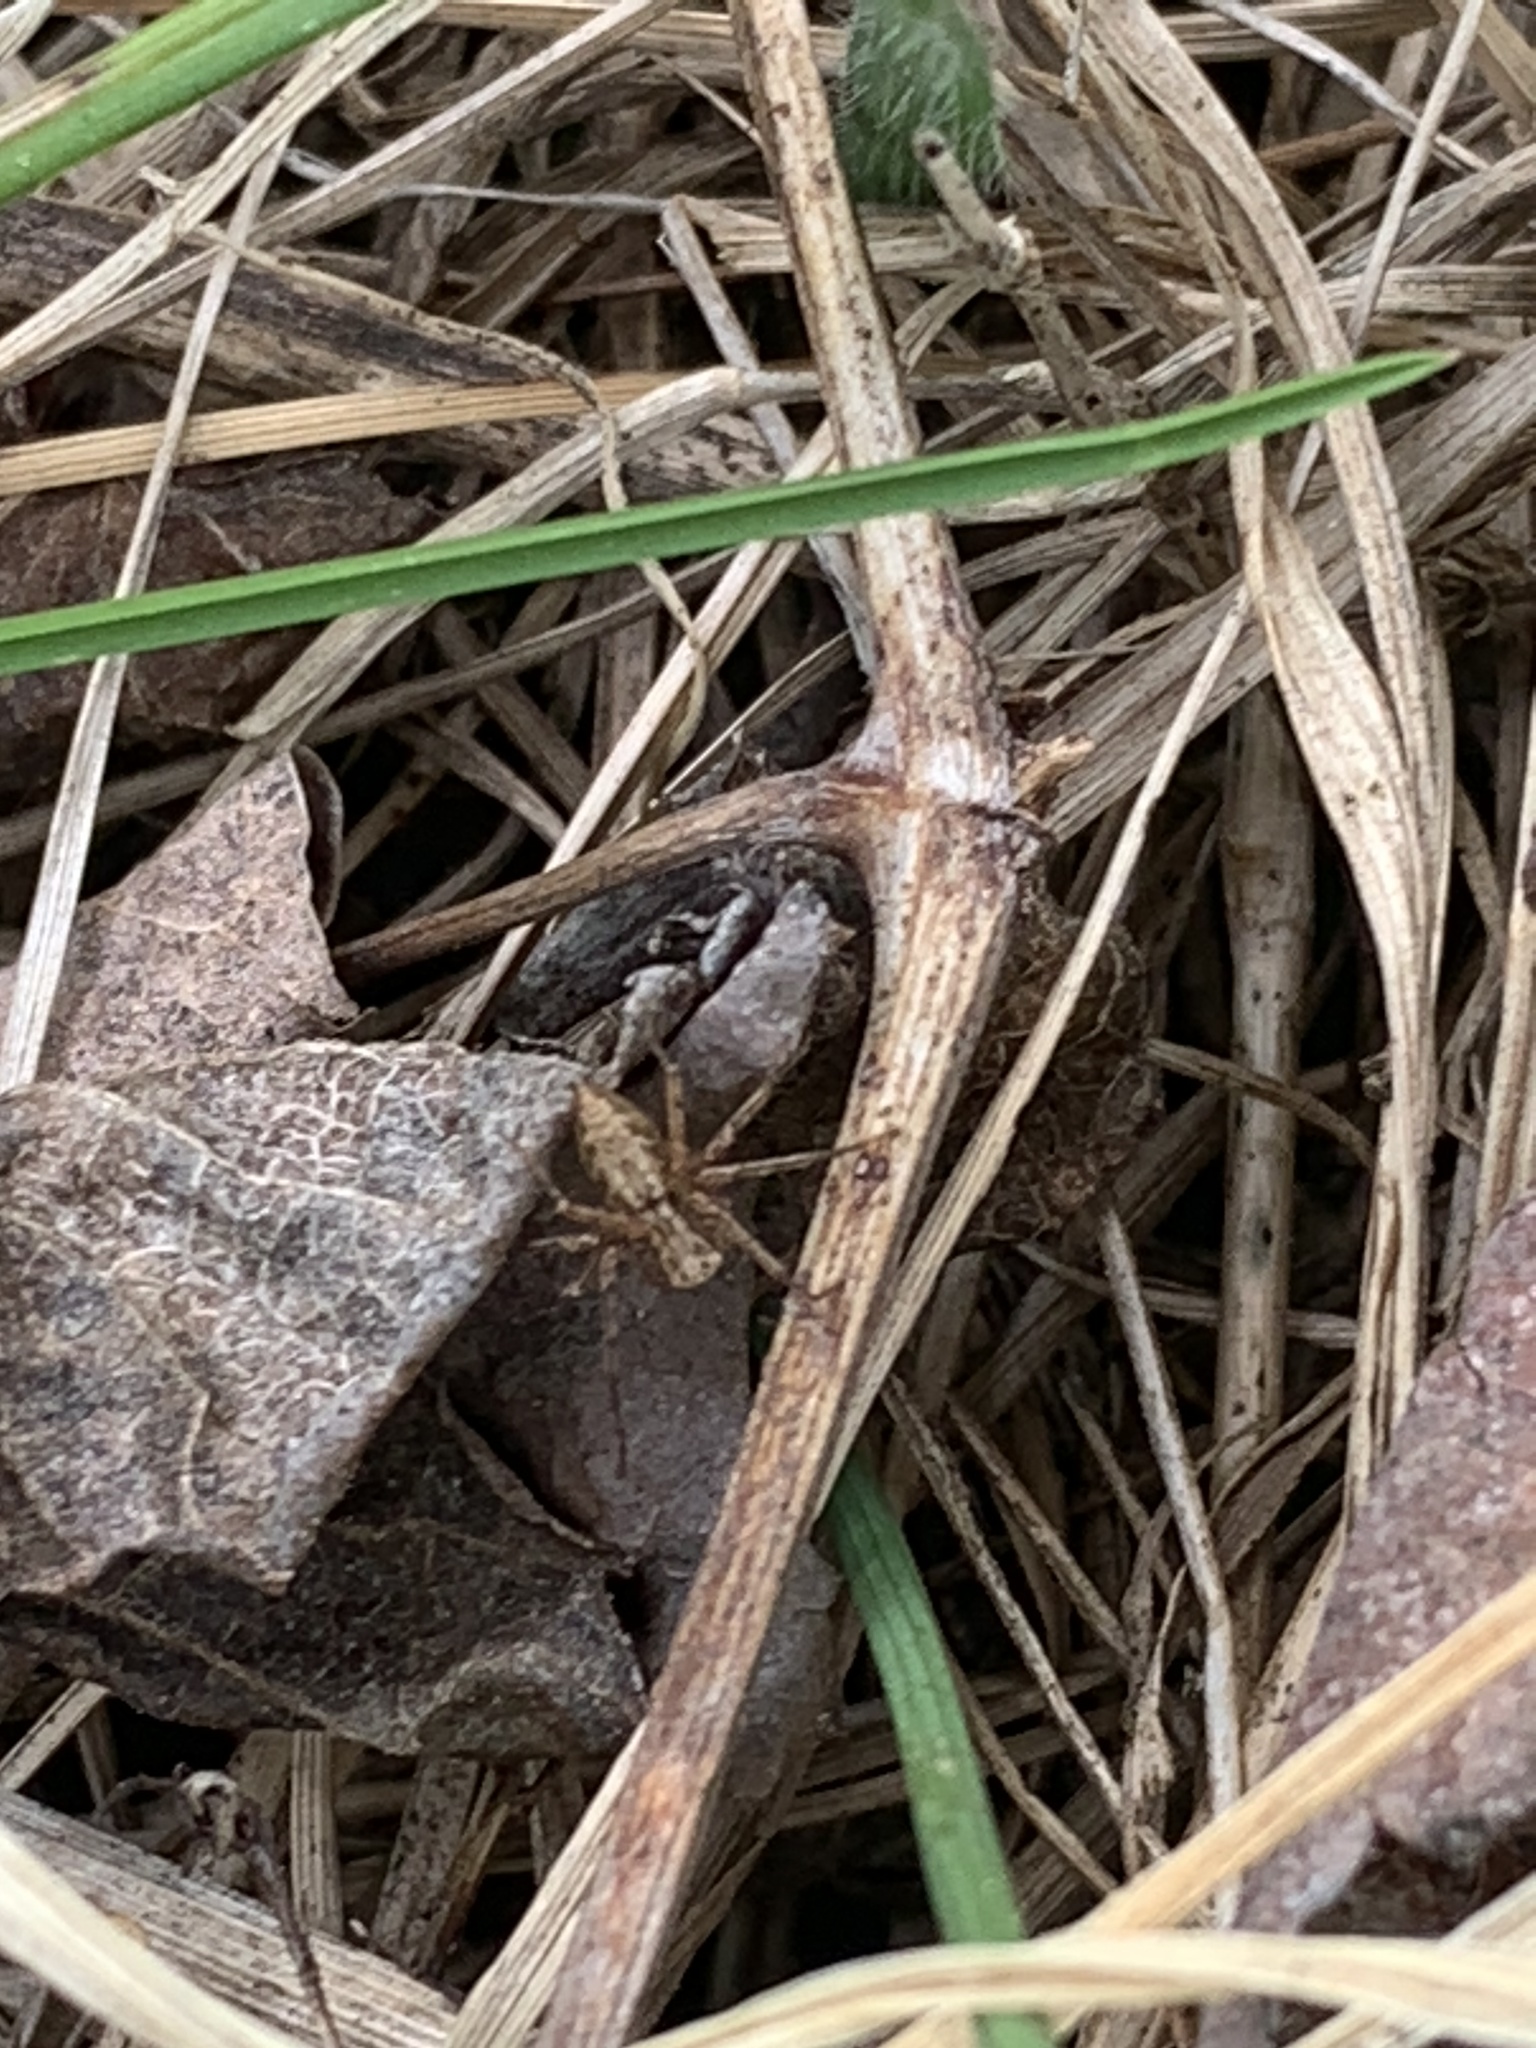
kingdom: Animalia
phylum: Arthropoda
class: Arachnida
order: Araneae
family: Oxyopidae
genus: Oxyopes
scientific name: Oxyopes scalaris
